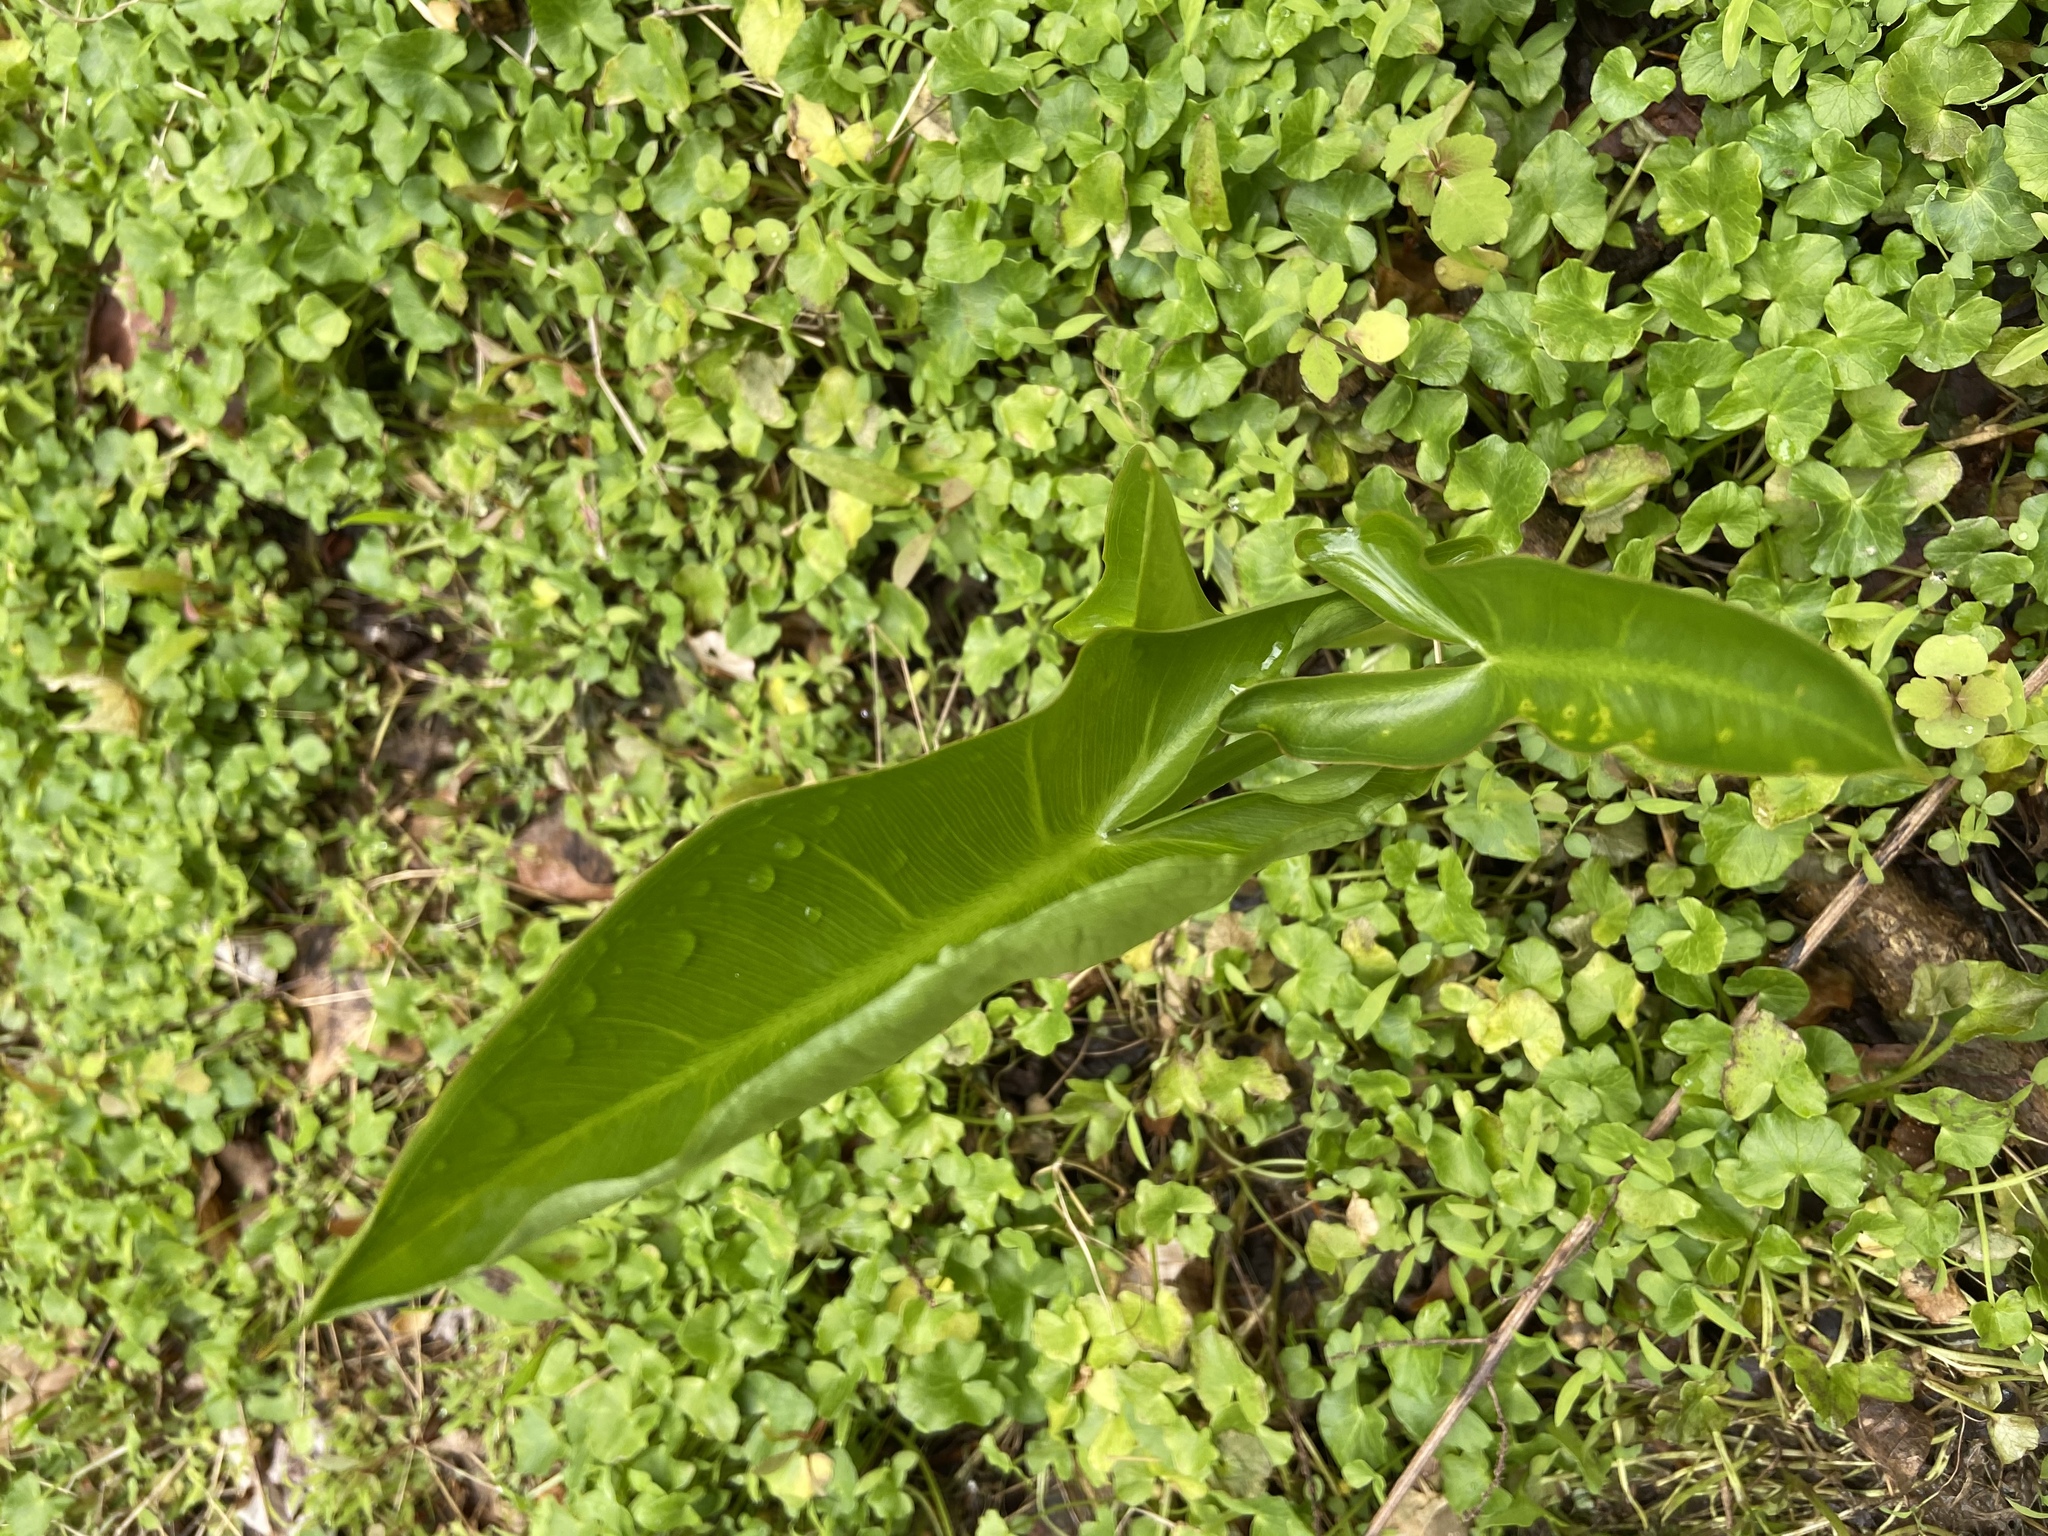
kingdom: Plantae
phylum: Tracheophyta
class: Liliopsida
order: Alismatales
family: Araceae
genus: Peltandra
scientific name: Peltandra virginica
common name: Arrow arum
